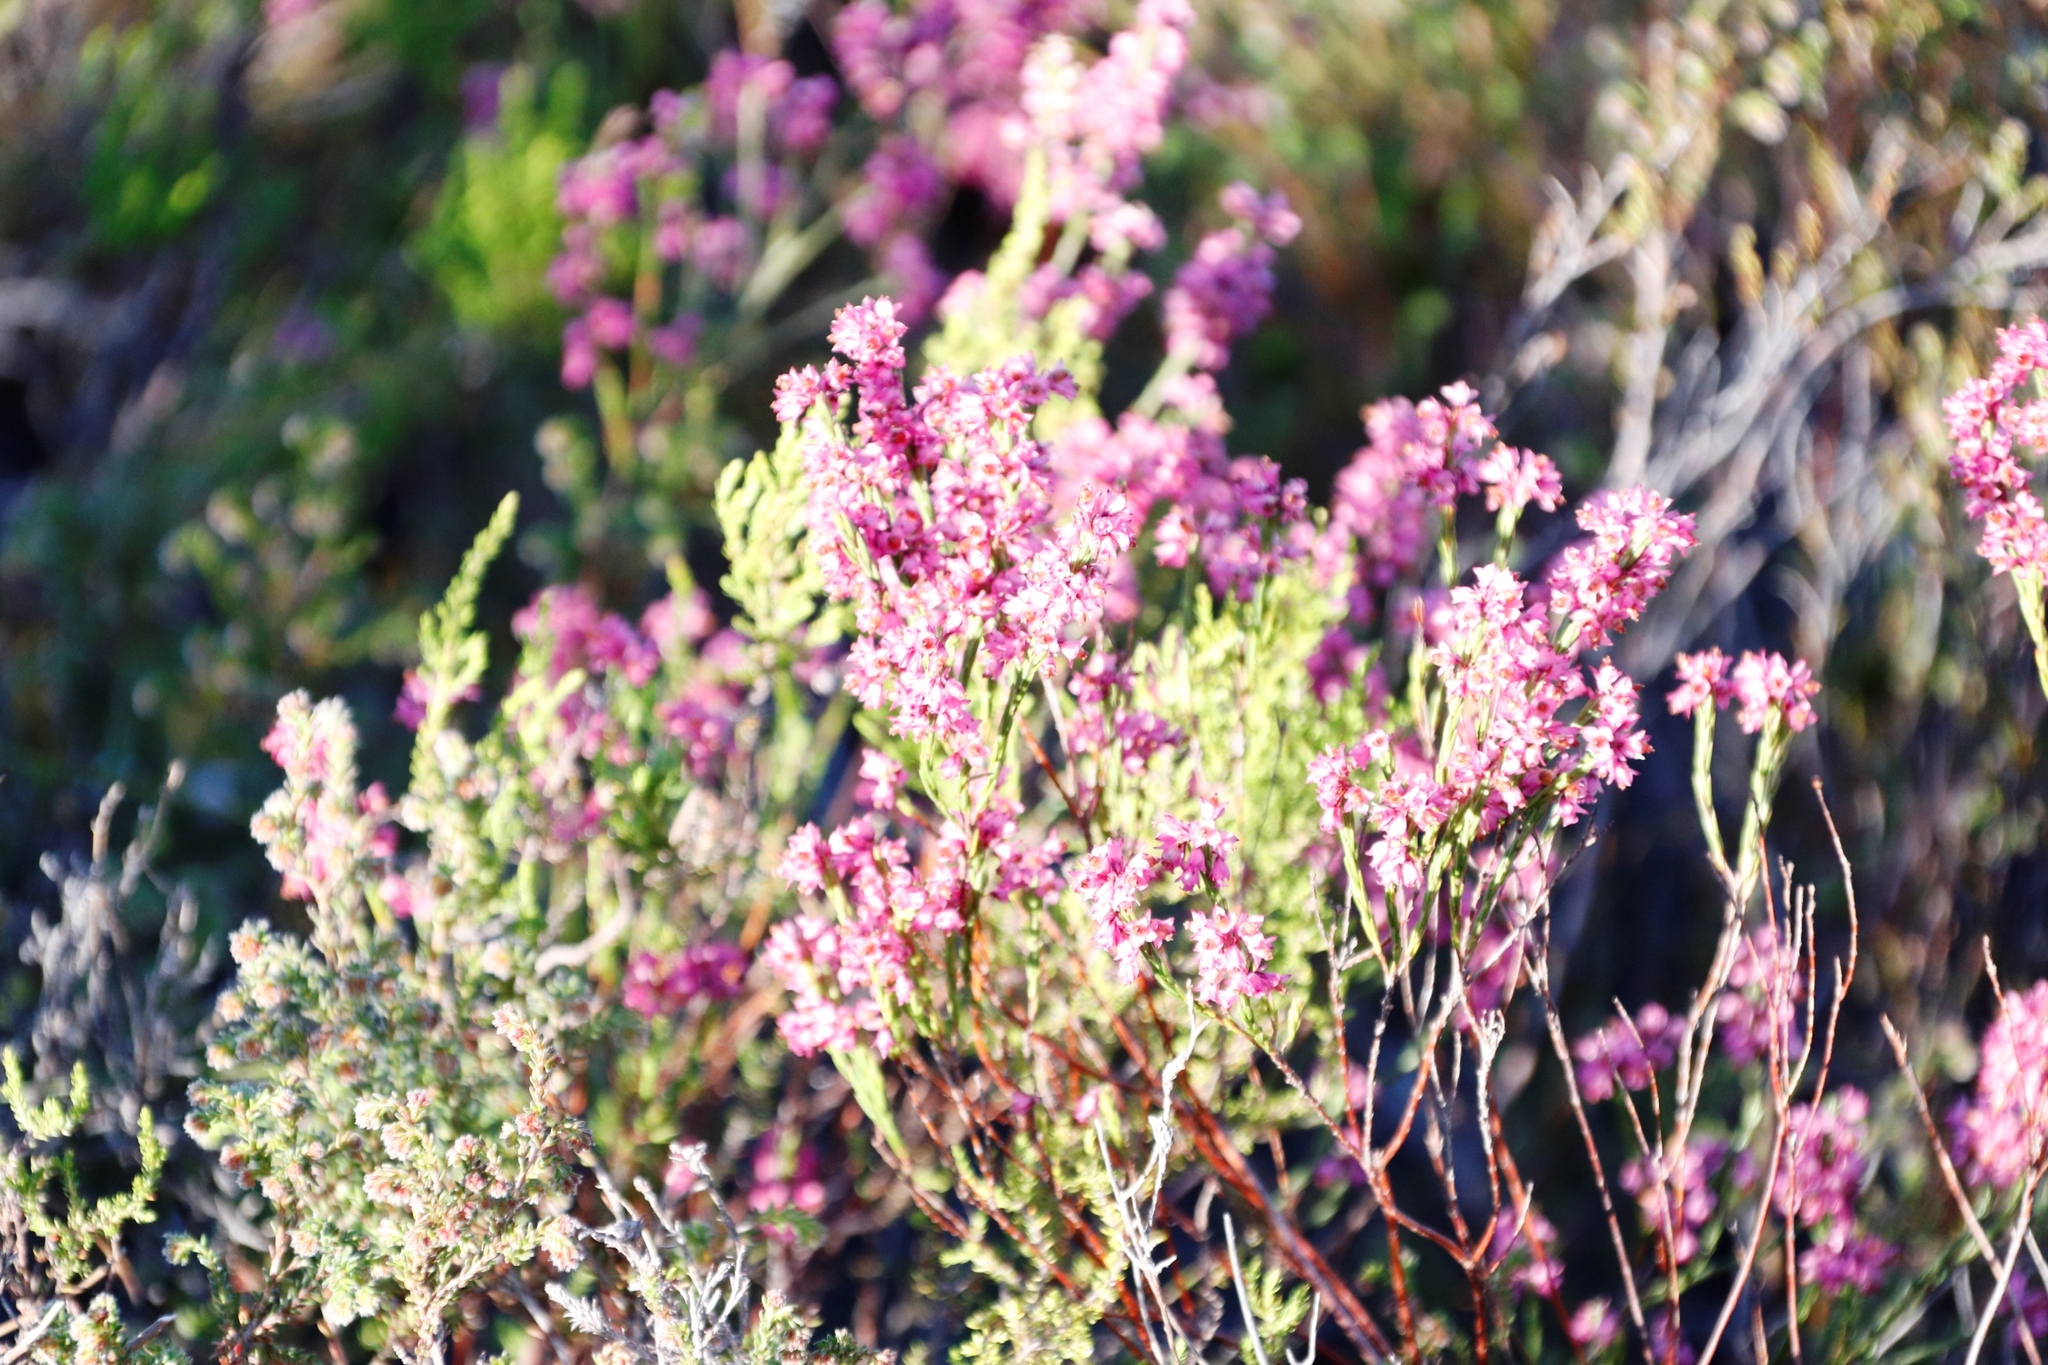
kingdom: Plantae
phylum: Tracheophyta
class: Magnoliopsida
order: Ericales
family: Ericaceae
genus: Erica
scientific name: Erica corifolia
